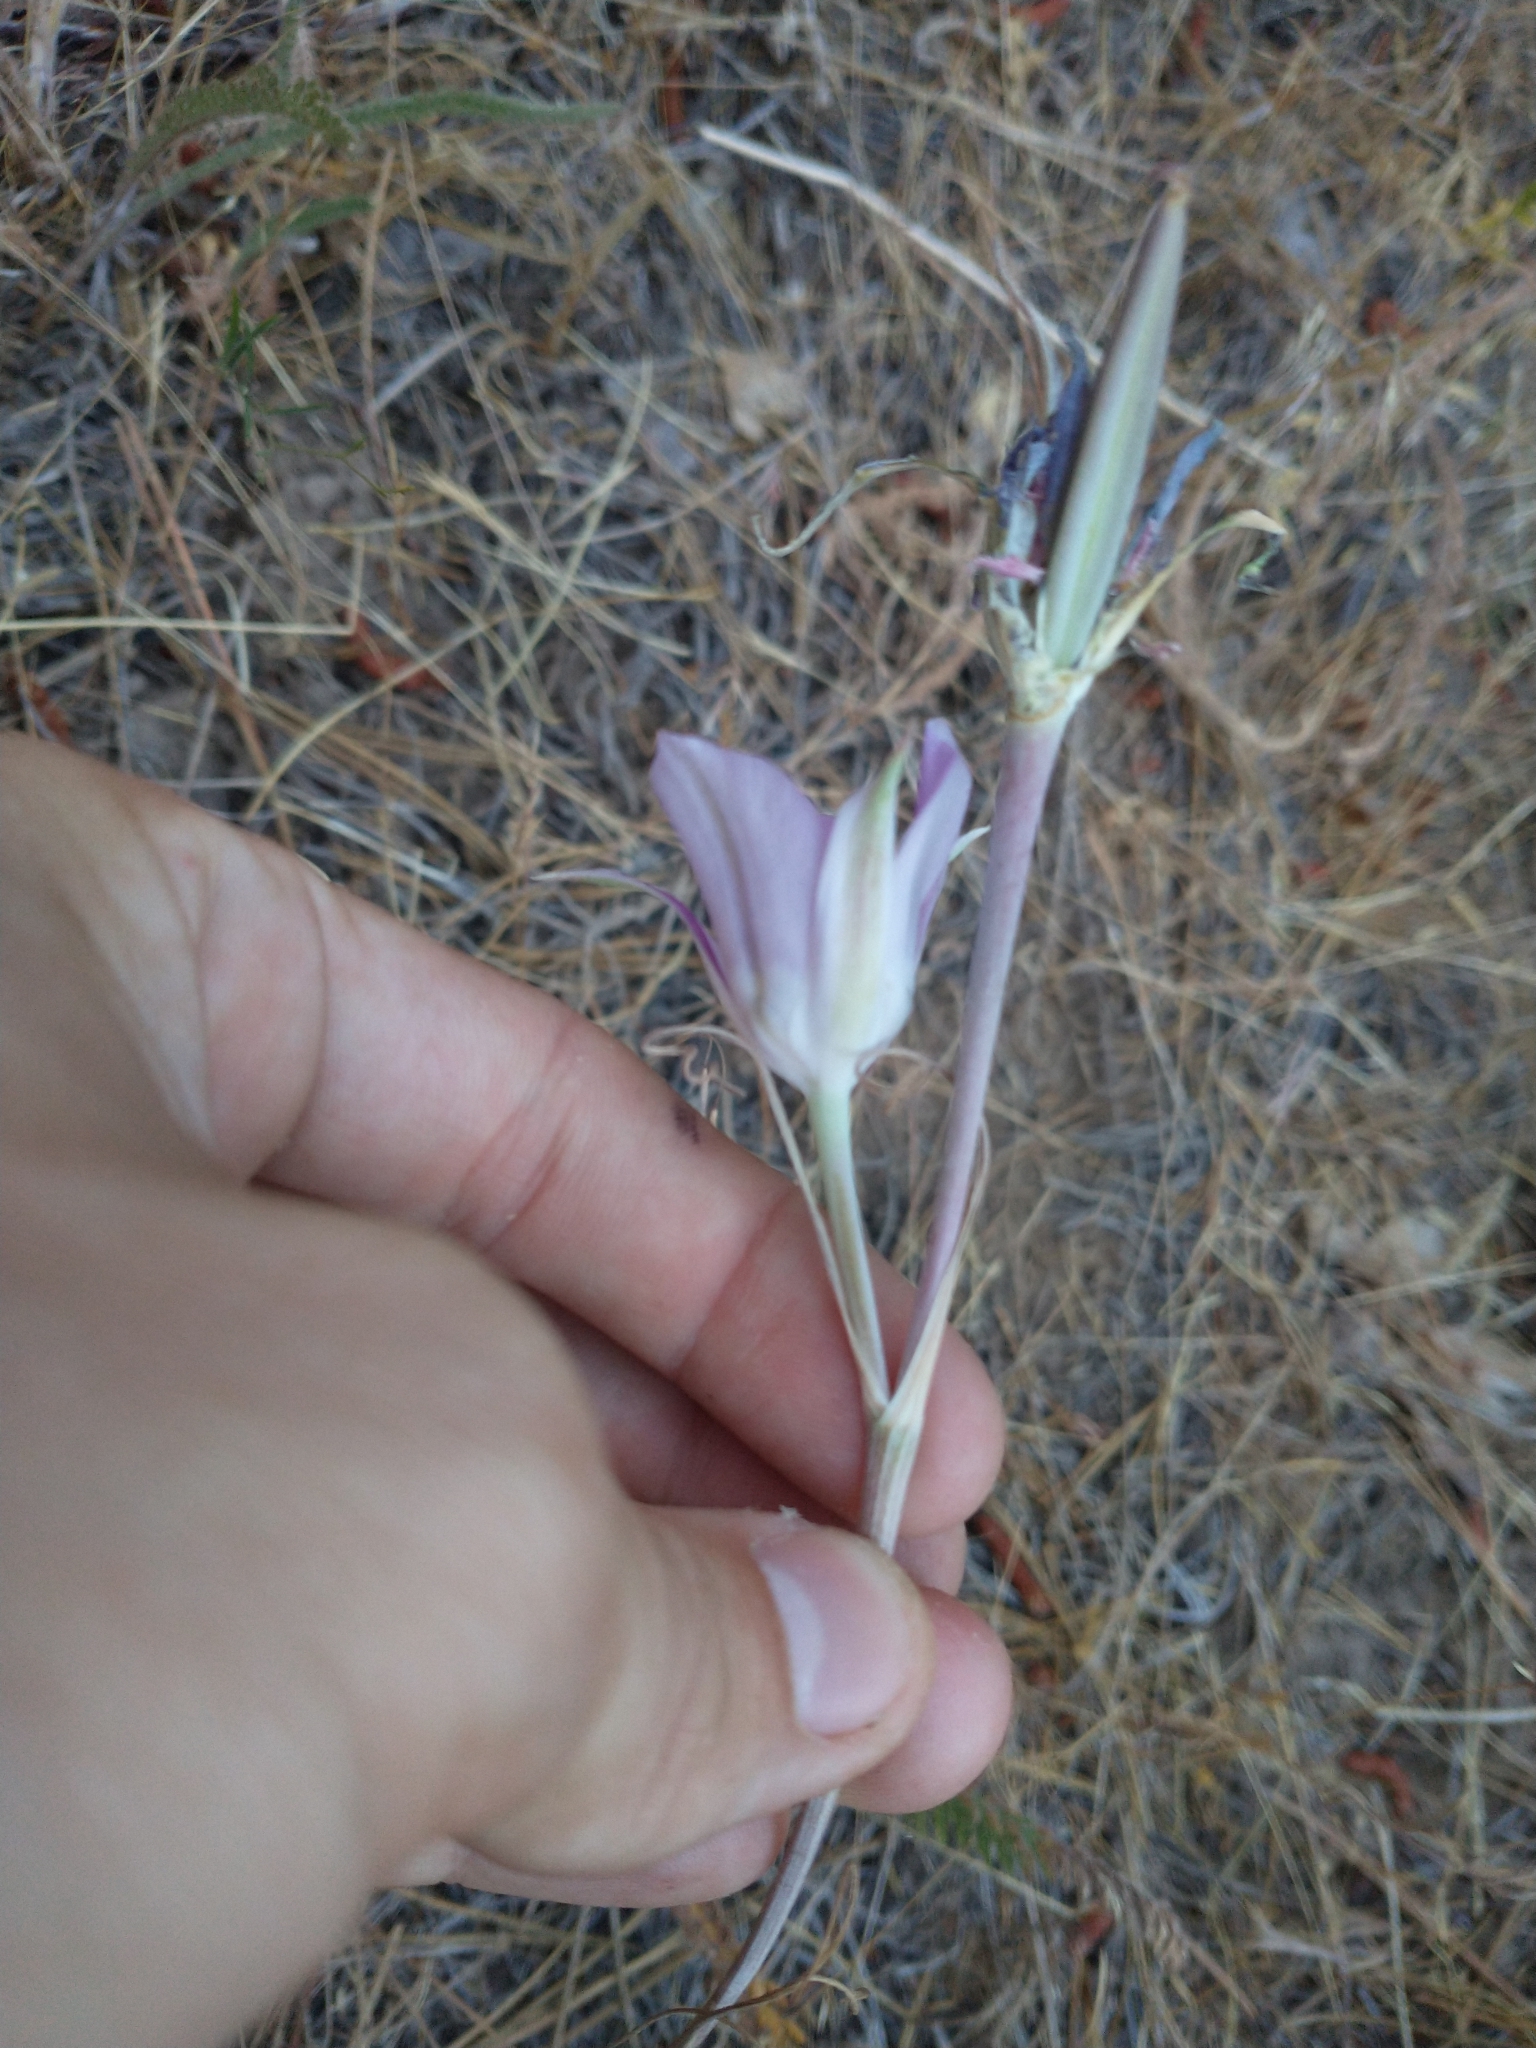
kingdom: Plantae
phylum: Tracheophyta
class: Liliopsida
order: Liliales
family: Liliaceae
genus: Calochortus
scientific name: Calochortus macrocarpus
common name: Green-band mariposa lily
